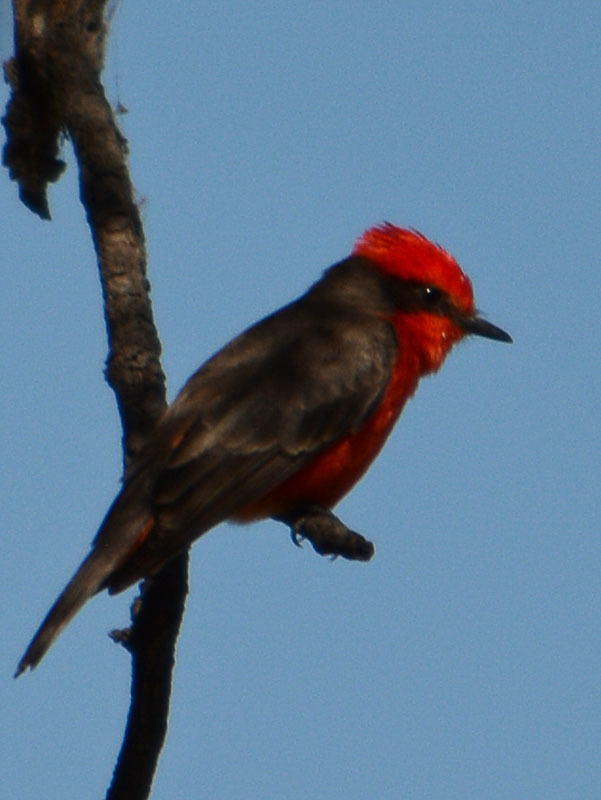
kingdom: Animalia
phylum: Chordata
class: Aves
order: Passeriformes
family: Tyrannidae
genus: Pyrocephalus
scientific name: Pyrocephalus rubinus
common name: Vermilion flycatcher
